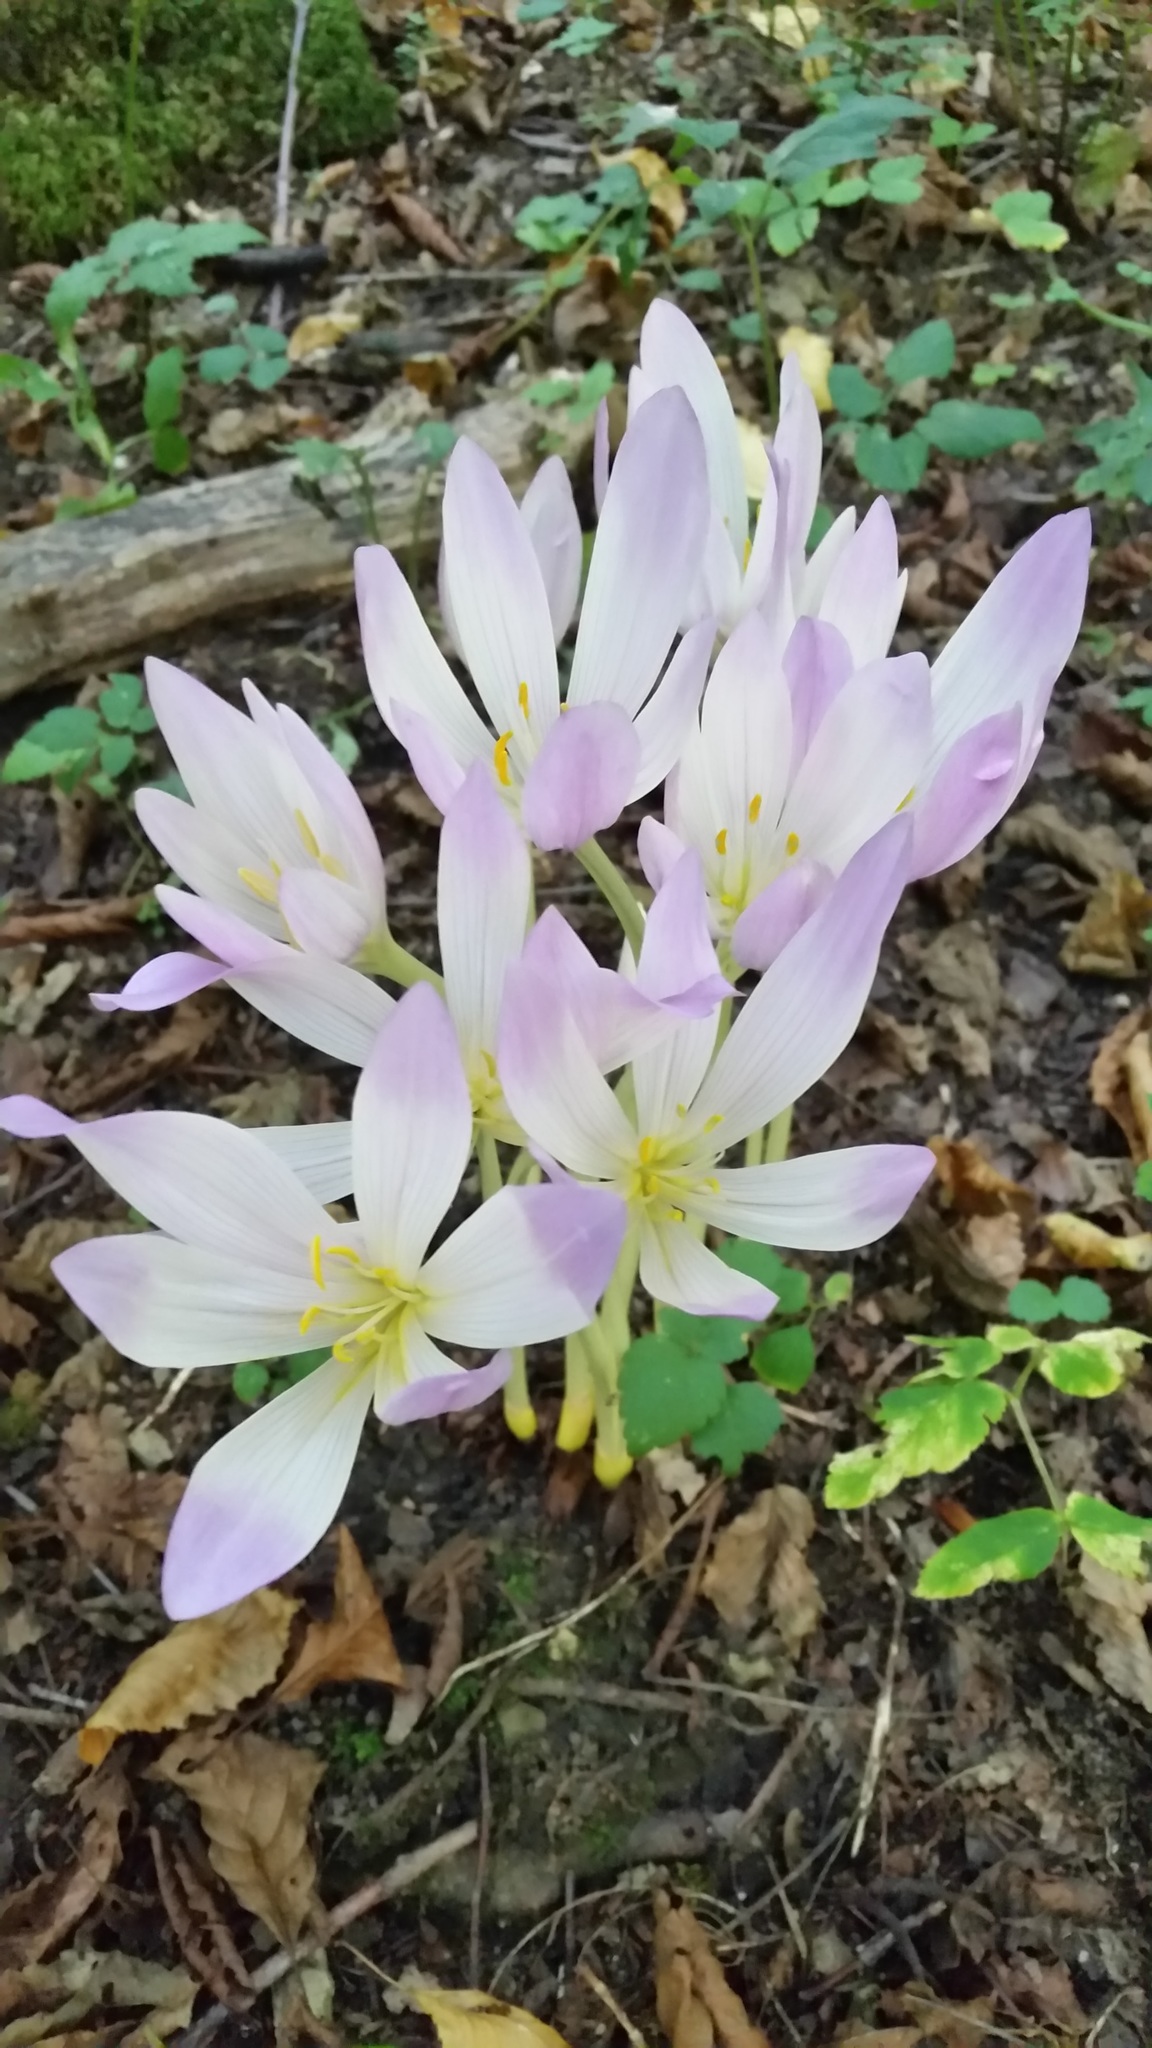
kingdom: Plantae
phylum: Tracheophyta
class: Liliopsida
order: Liliales
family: Colchicaceae
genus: Colchicum
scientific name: Colchicum speciosum
